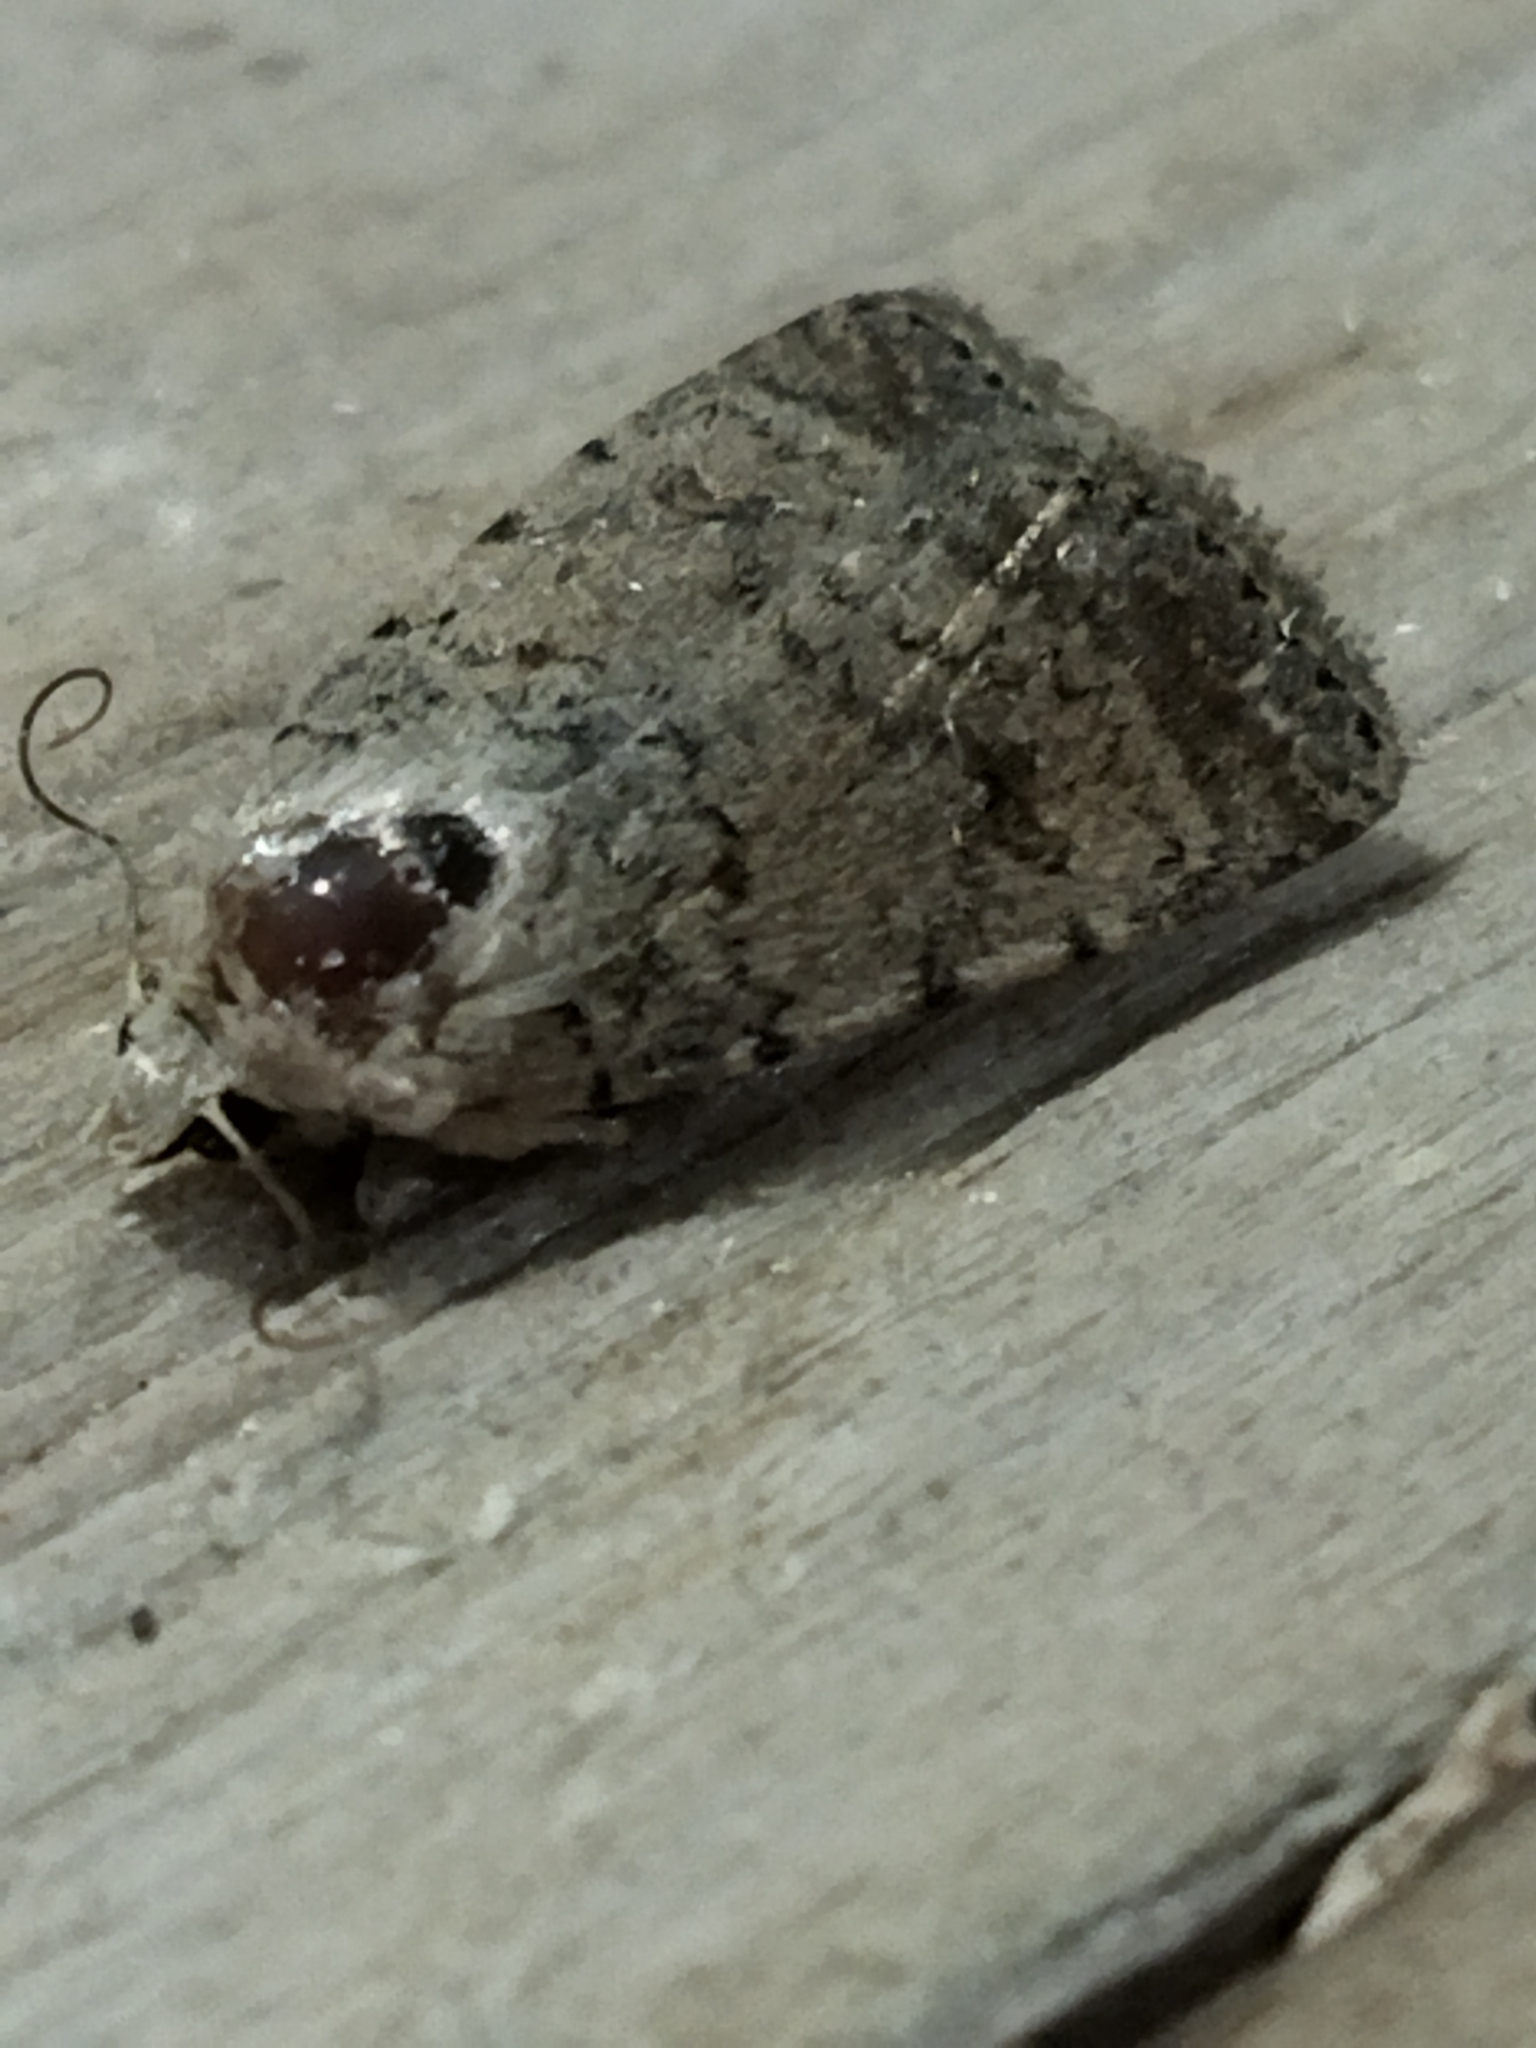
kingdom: Animalia
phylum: Arthropoda
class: Insecta
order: Lepidoptera
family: Noctuidae
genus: Caradrina
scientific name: Caradrina clavipalpis
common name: Pale mottled willow
